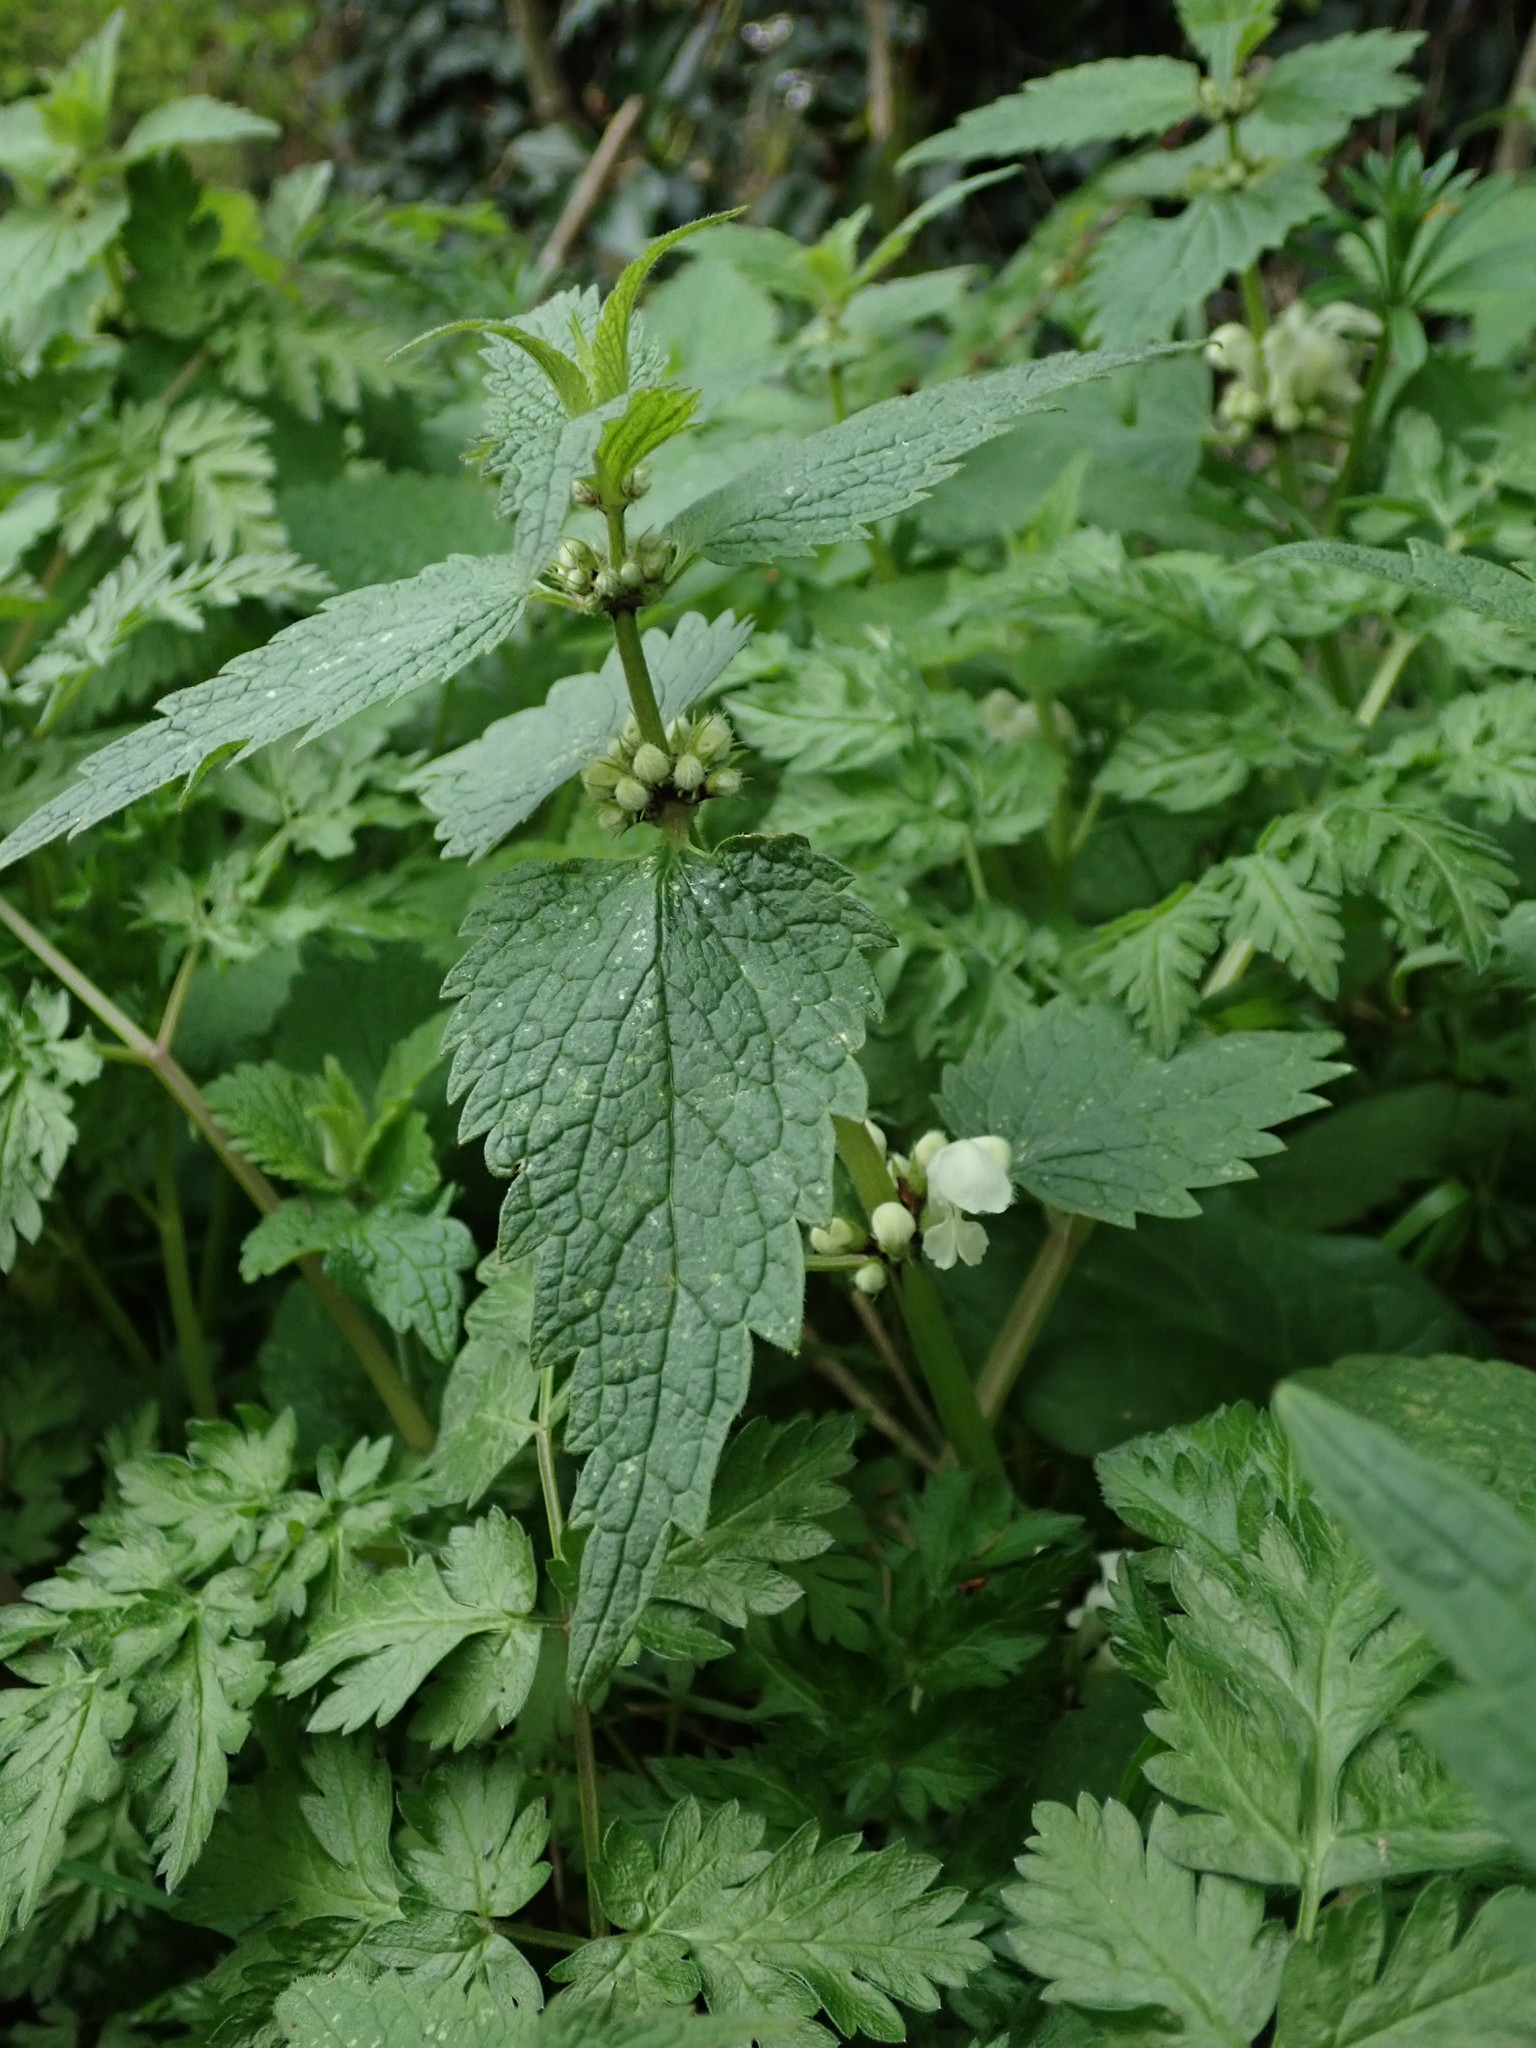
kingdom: Plantae
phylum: Tracheophyta
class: Magnoliopsida
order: Lamiales
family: Lamiaceae
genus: Lamium
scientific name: Lamium album
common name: White dead-nettle
